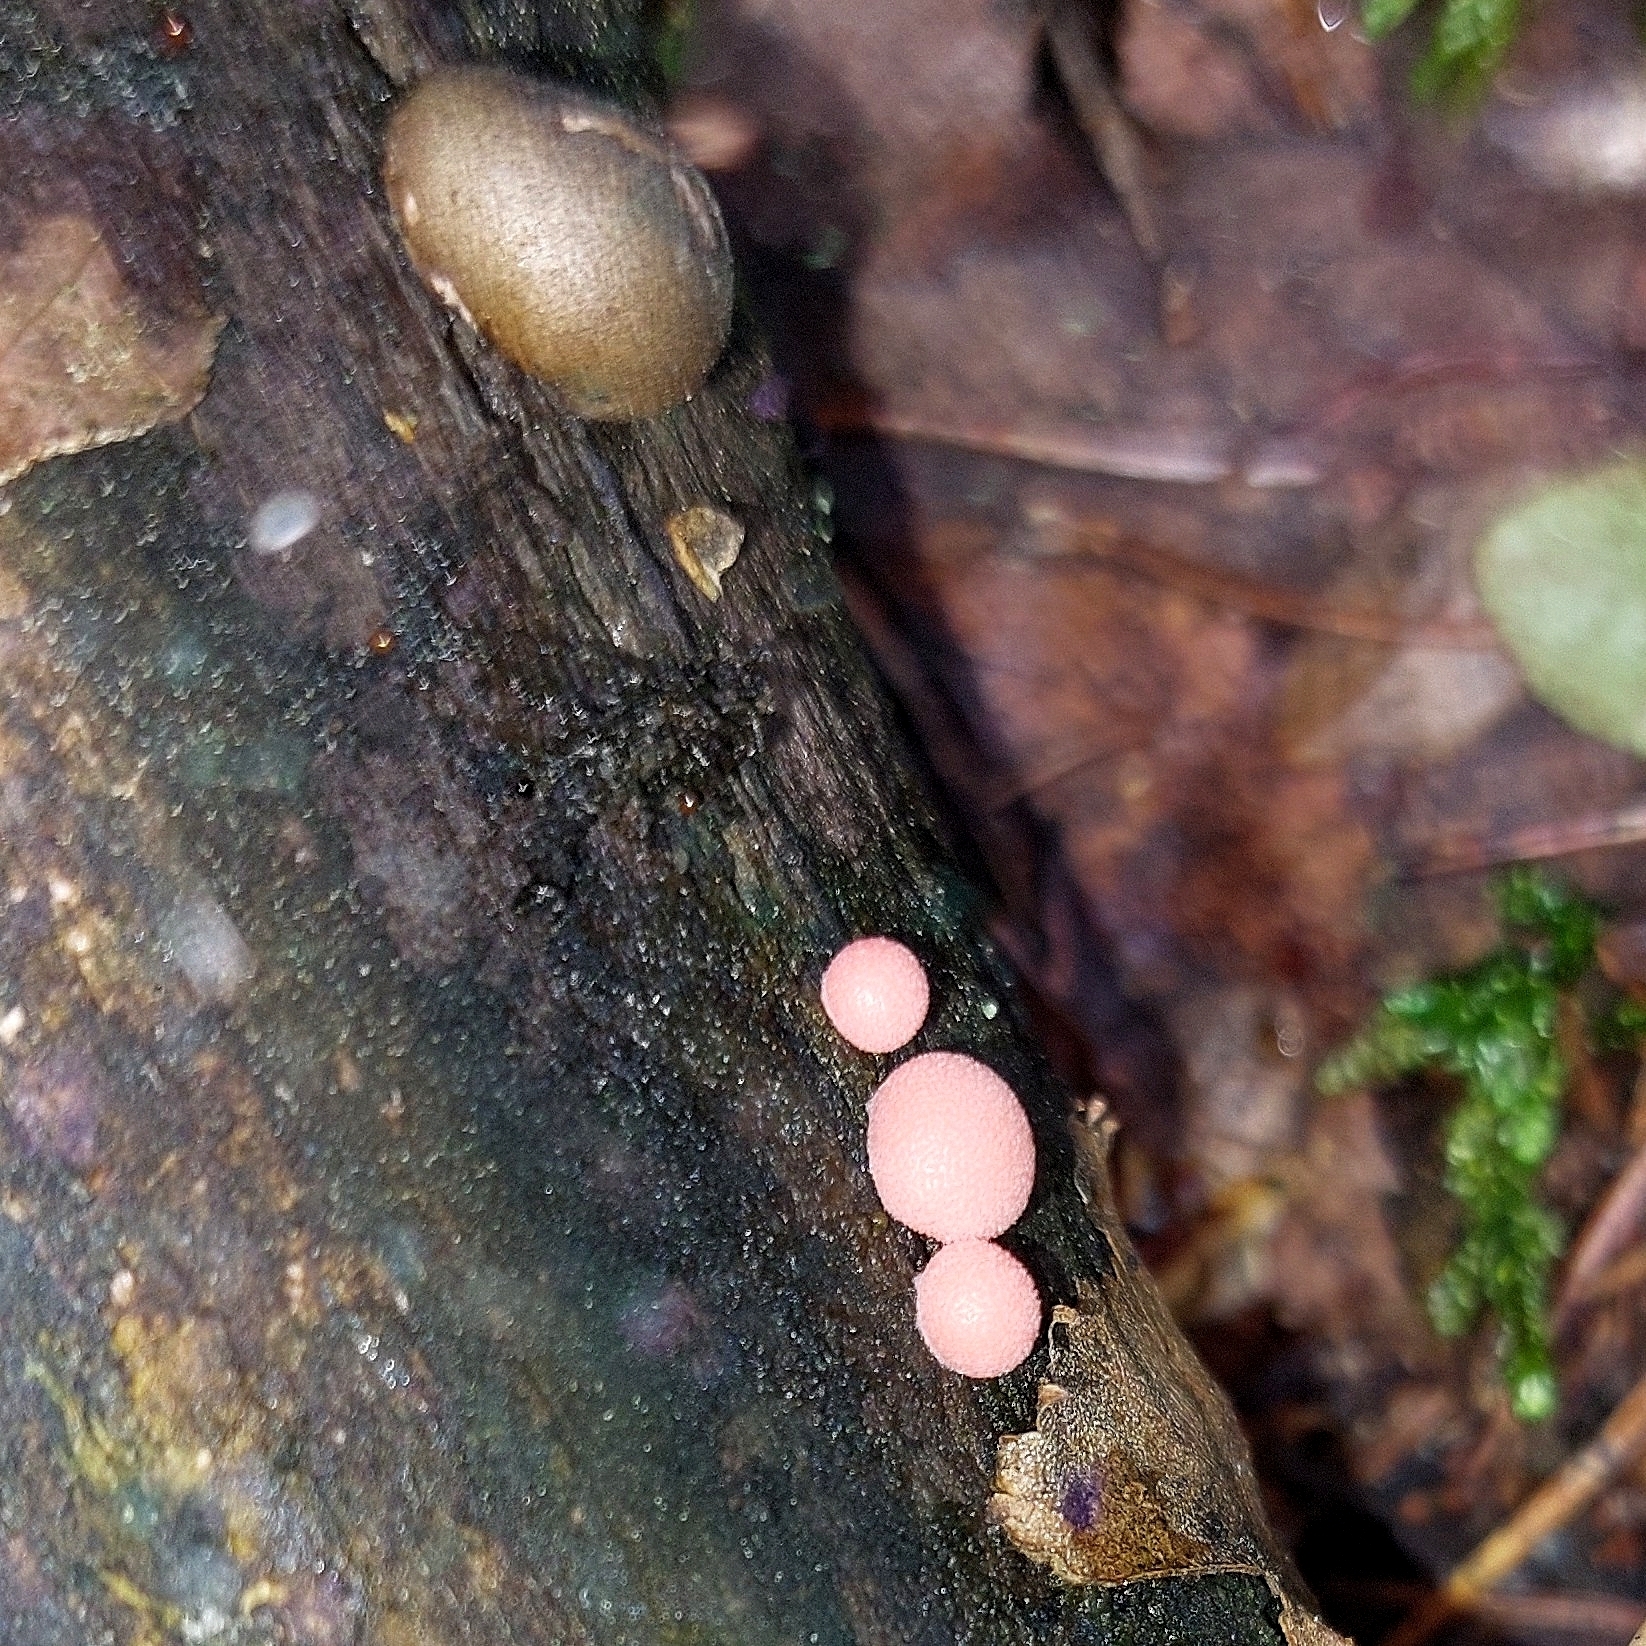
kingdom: Protozoa
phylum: Mycetozoa
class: Myxomycetes
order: Cribrariales
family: Tubiferaceae
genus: Lycogala
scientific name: Lycogala epidendrum
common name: Wolf's milk
